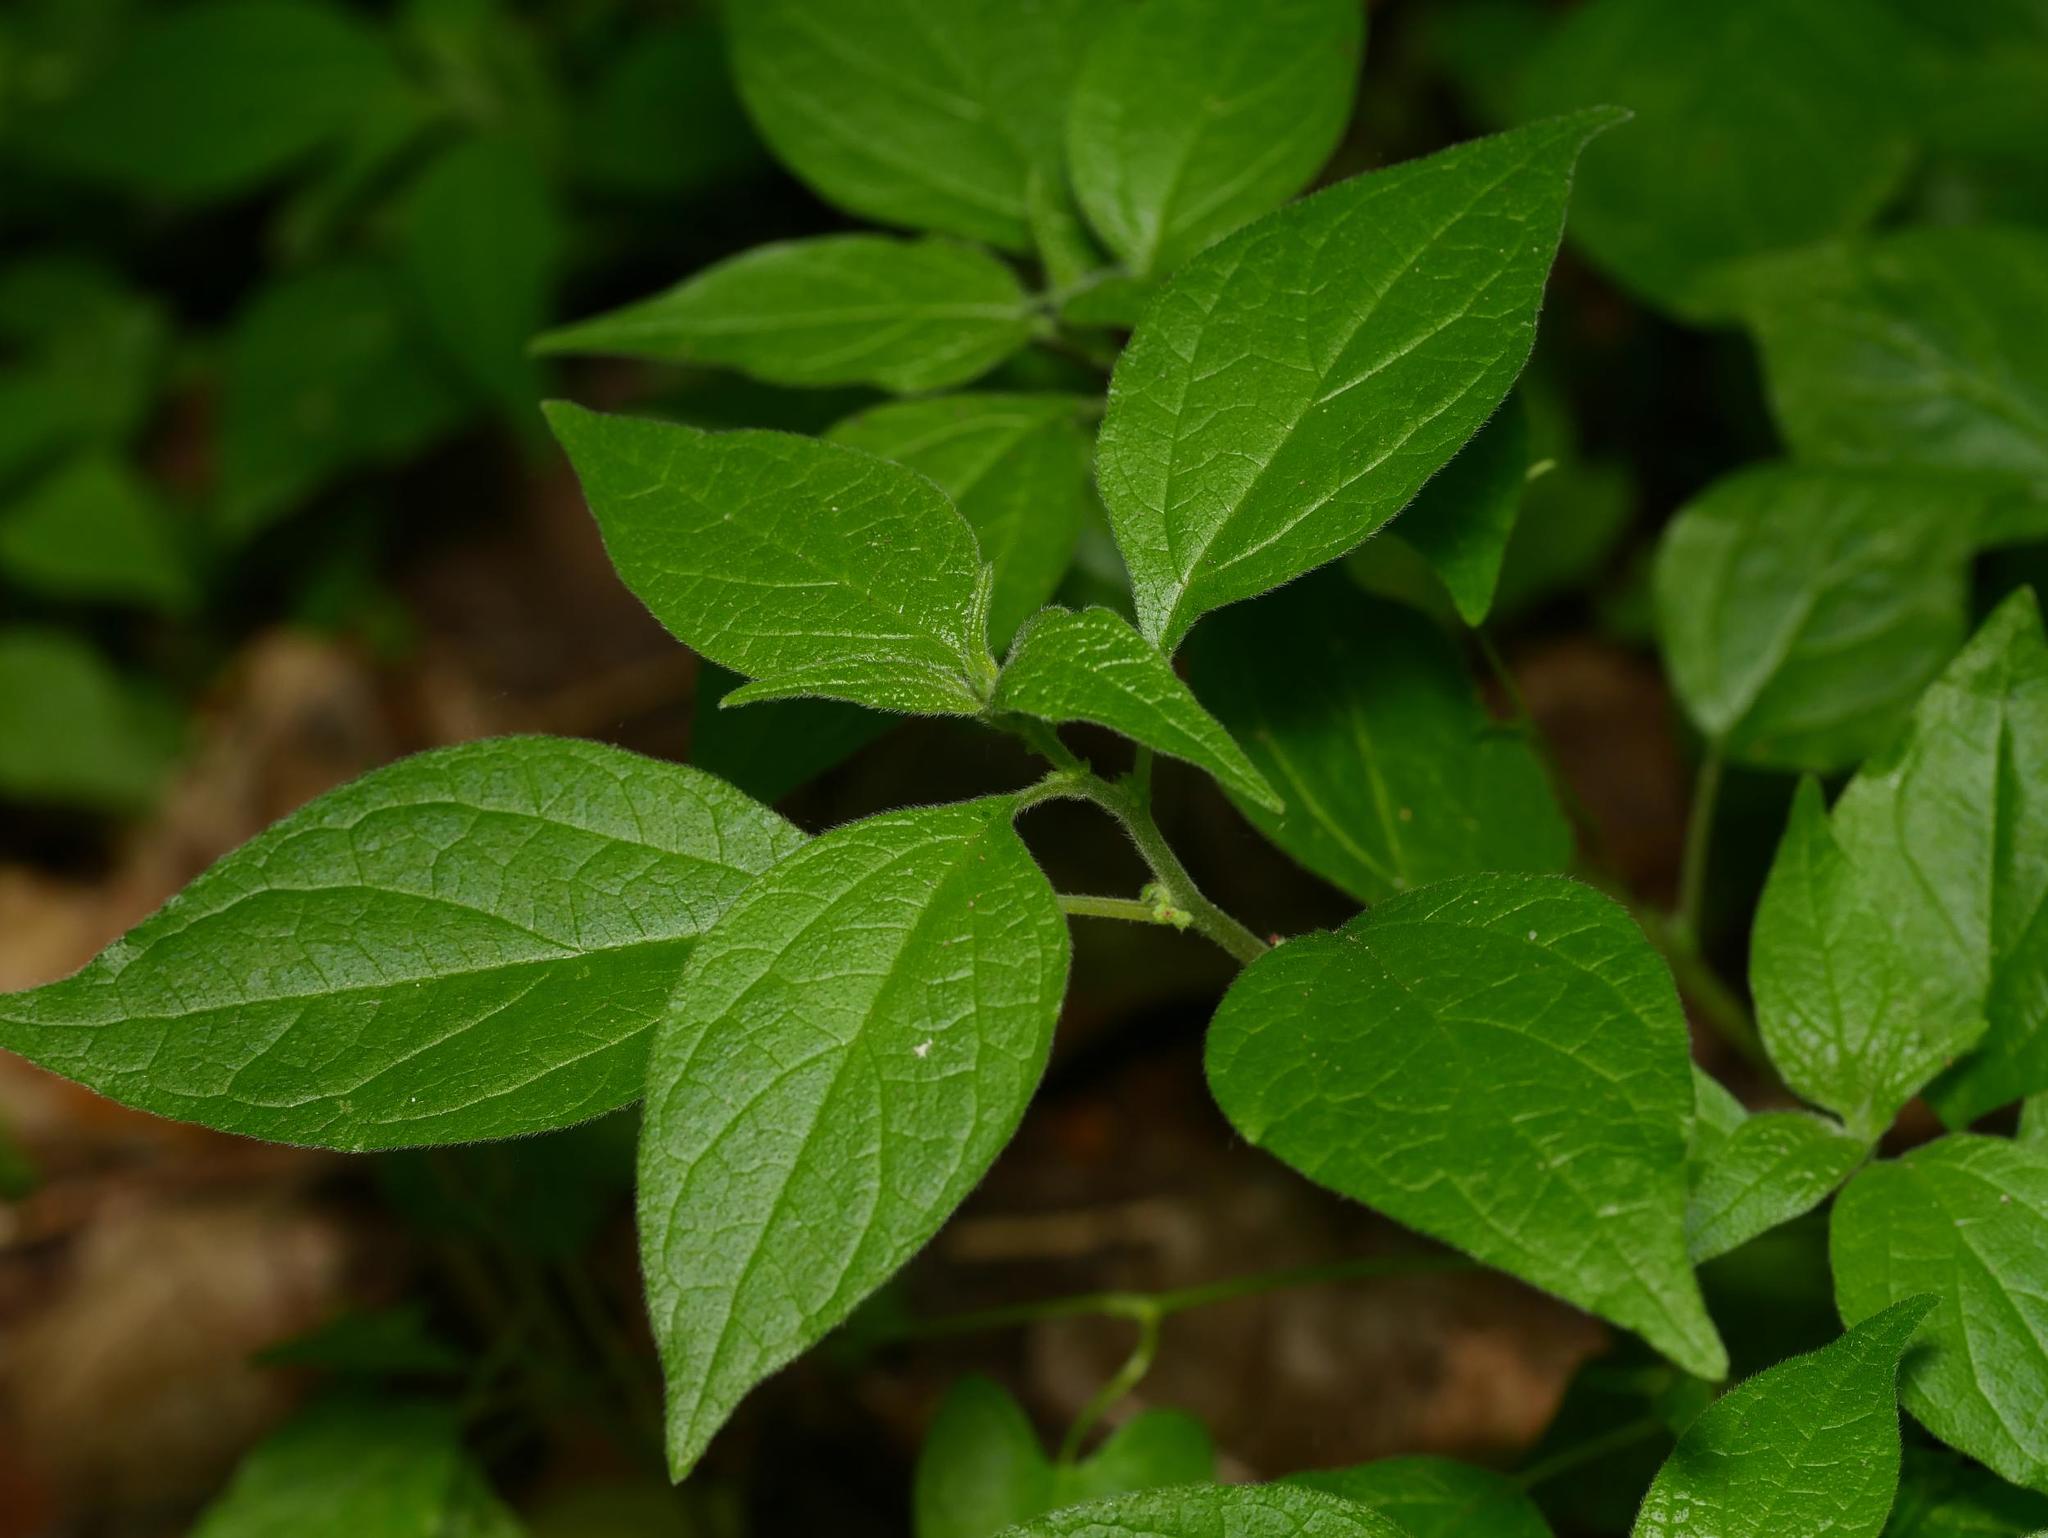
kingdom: Plantae
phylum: Tracheophyta
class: Magnoliopsida
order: Rosales
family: Urticaceae
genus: Parietaria
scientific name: Parietaria officinalis
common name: Eastern pellitory-of-the-wall
